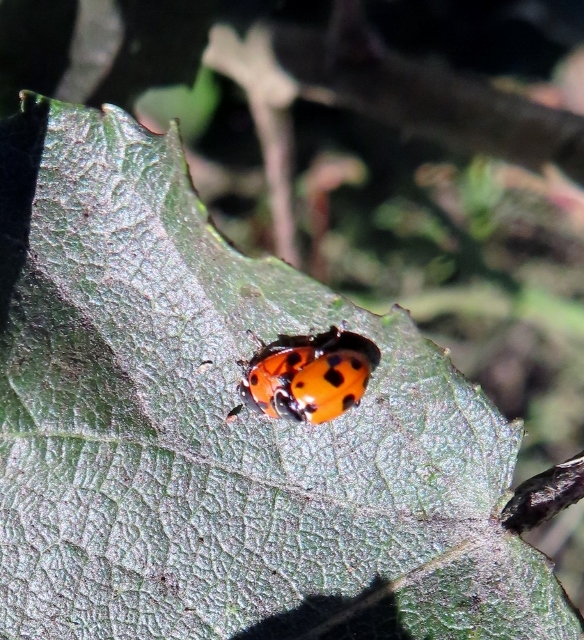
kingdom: Animalia
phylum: Arthropoda
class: Insecta
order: Coleoptera
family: Coccinellidae
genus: Hippodamia
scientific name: Hippodamia variegata
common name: Ladybird beetle
